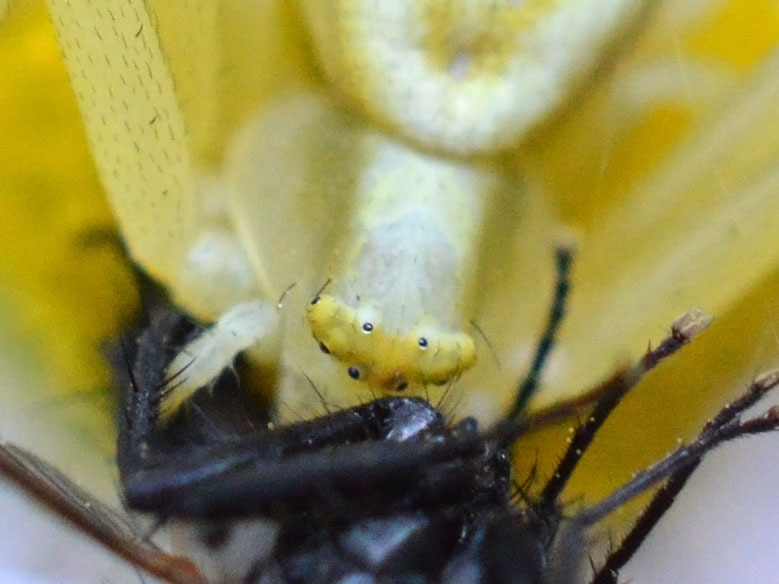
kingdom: Animalia
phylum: Arthropoda
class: Arachnida
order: Araneae
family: Thomisidae
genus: Misumena
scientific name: Misumena vatia
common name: Goldenrod crab spider
